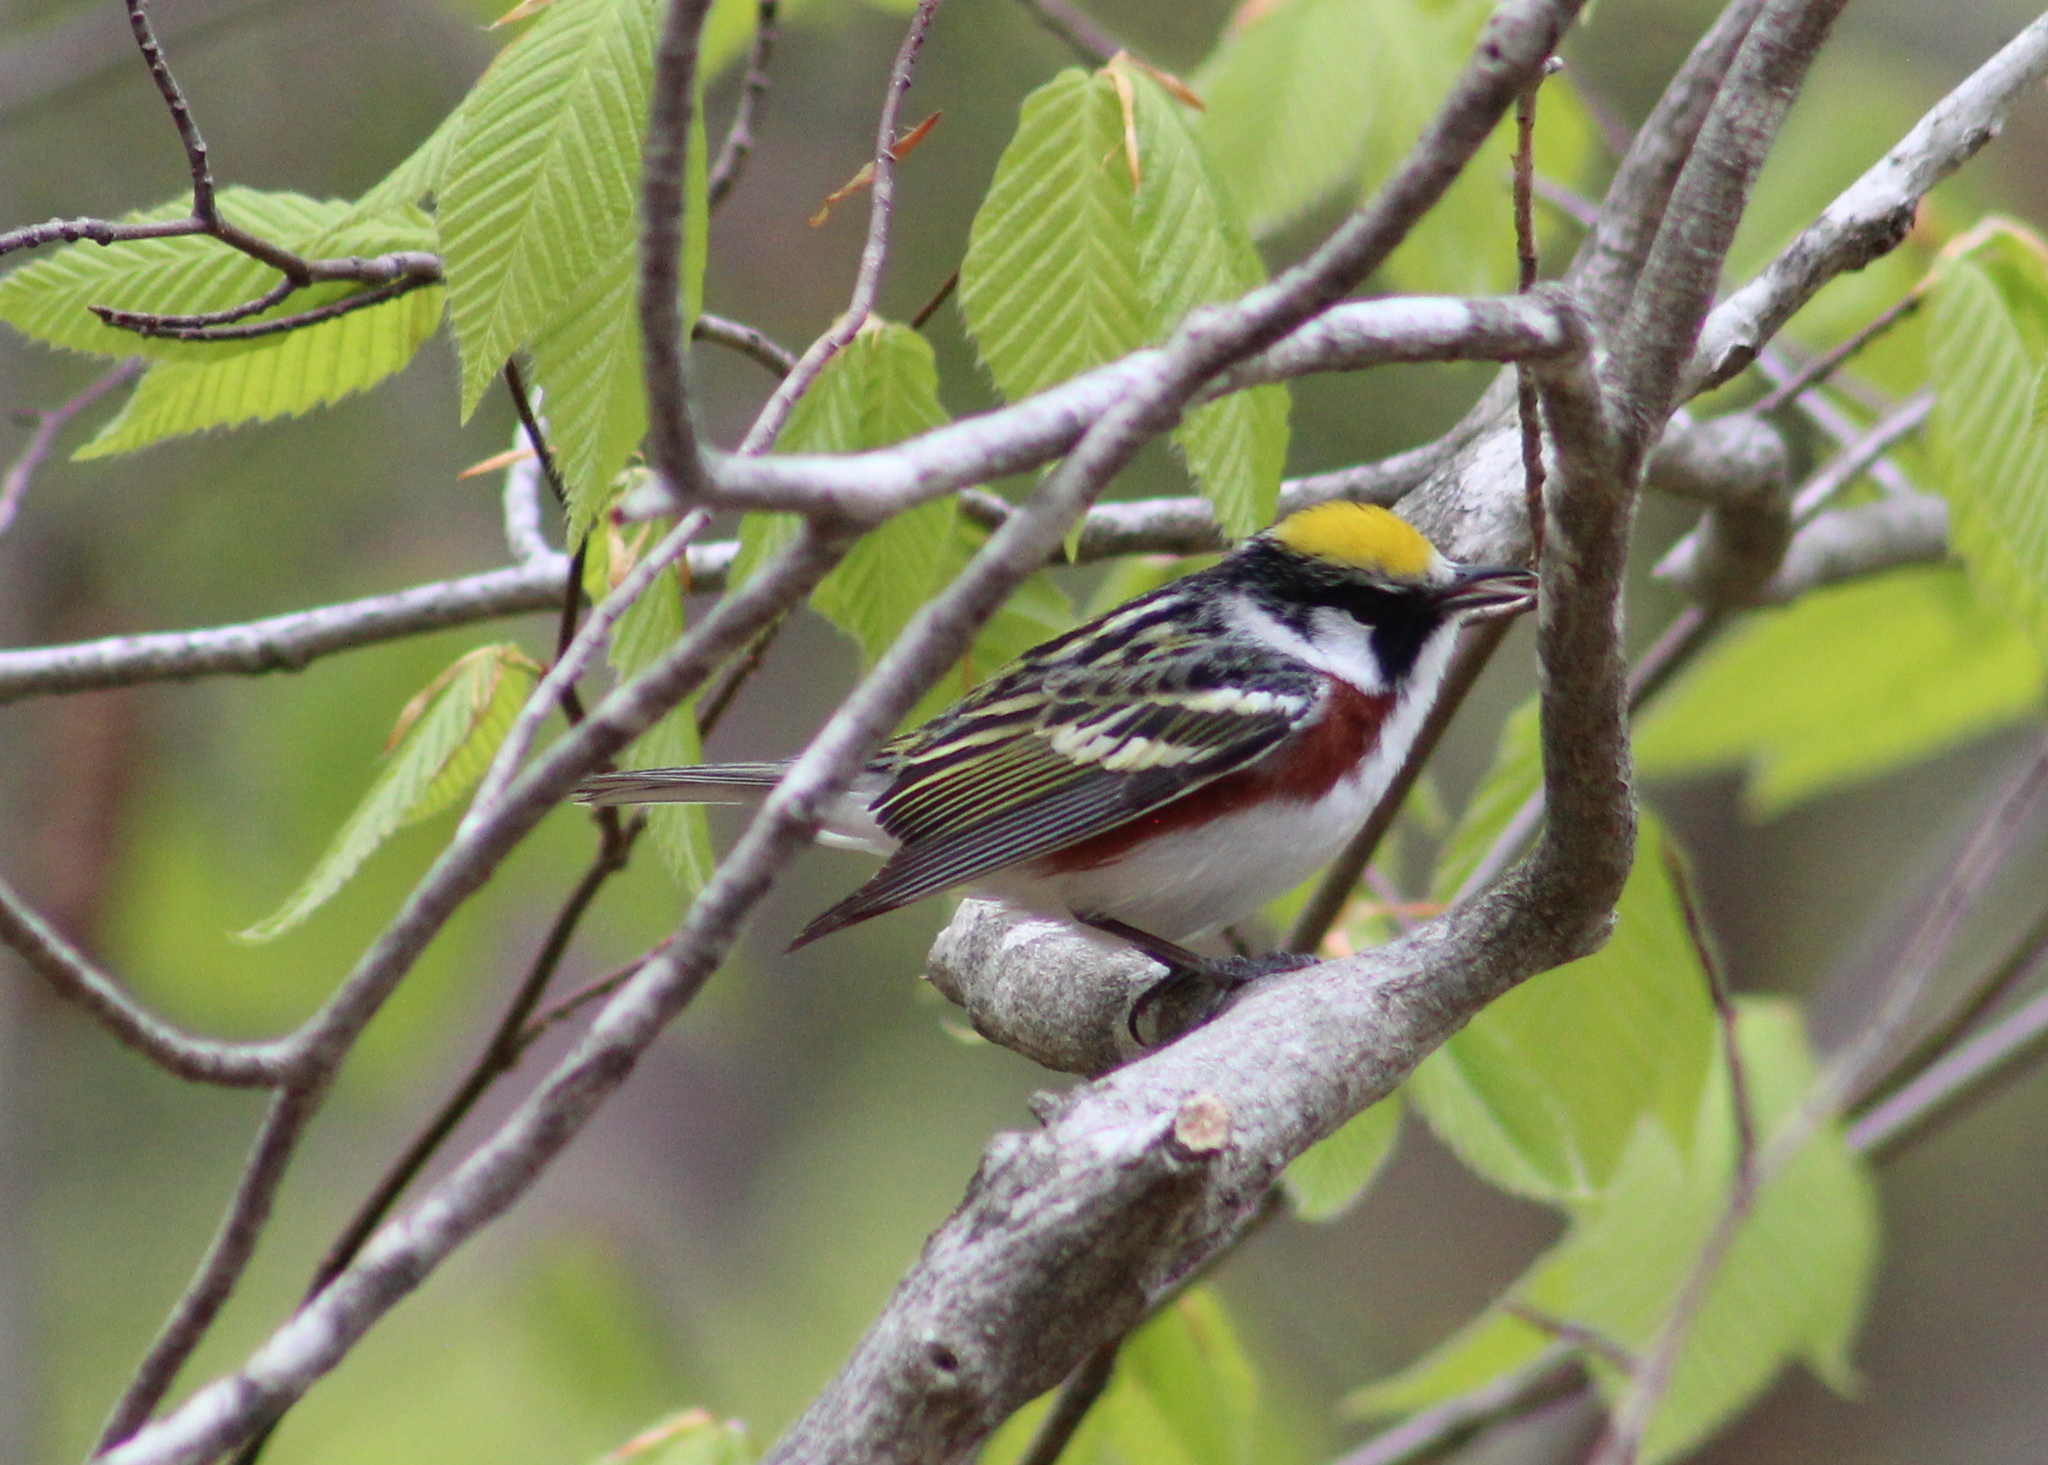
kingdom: Animalia
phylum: Chordata
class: Aves
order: Passeriformes
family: Parulidae
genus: Setophaga
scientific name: Setophaga pensylvanica
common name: Chestnut-sided warbler
